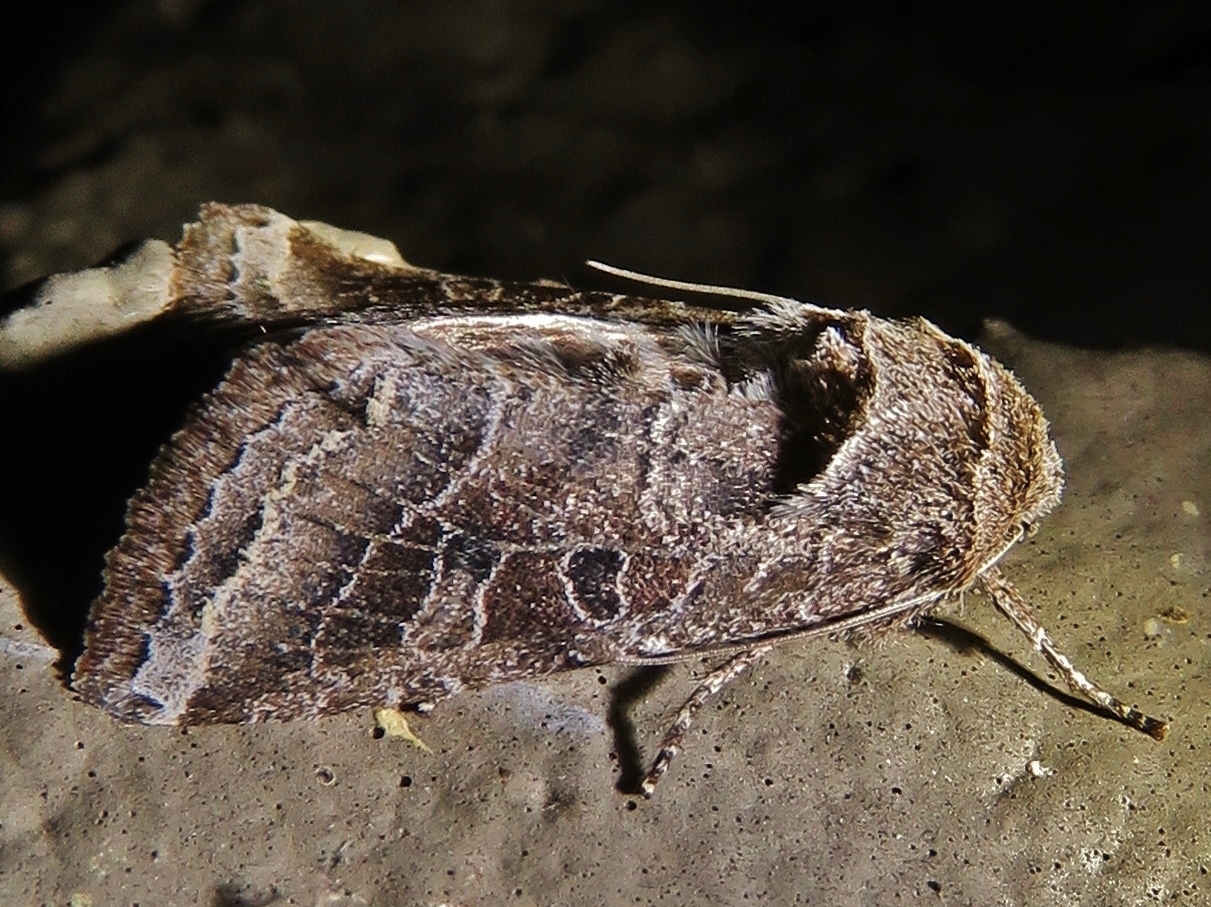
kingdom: Animalia
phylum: Arthropoda
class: Insecta
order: Lepidoptera
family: Noctuidae
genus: Lacinipolia
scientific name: Lacinipolia erecta
